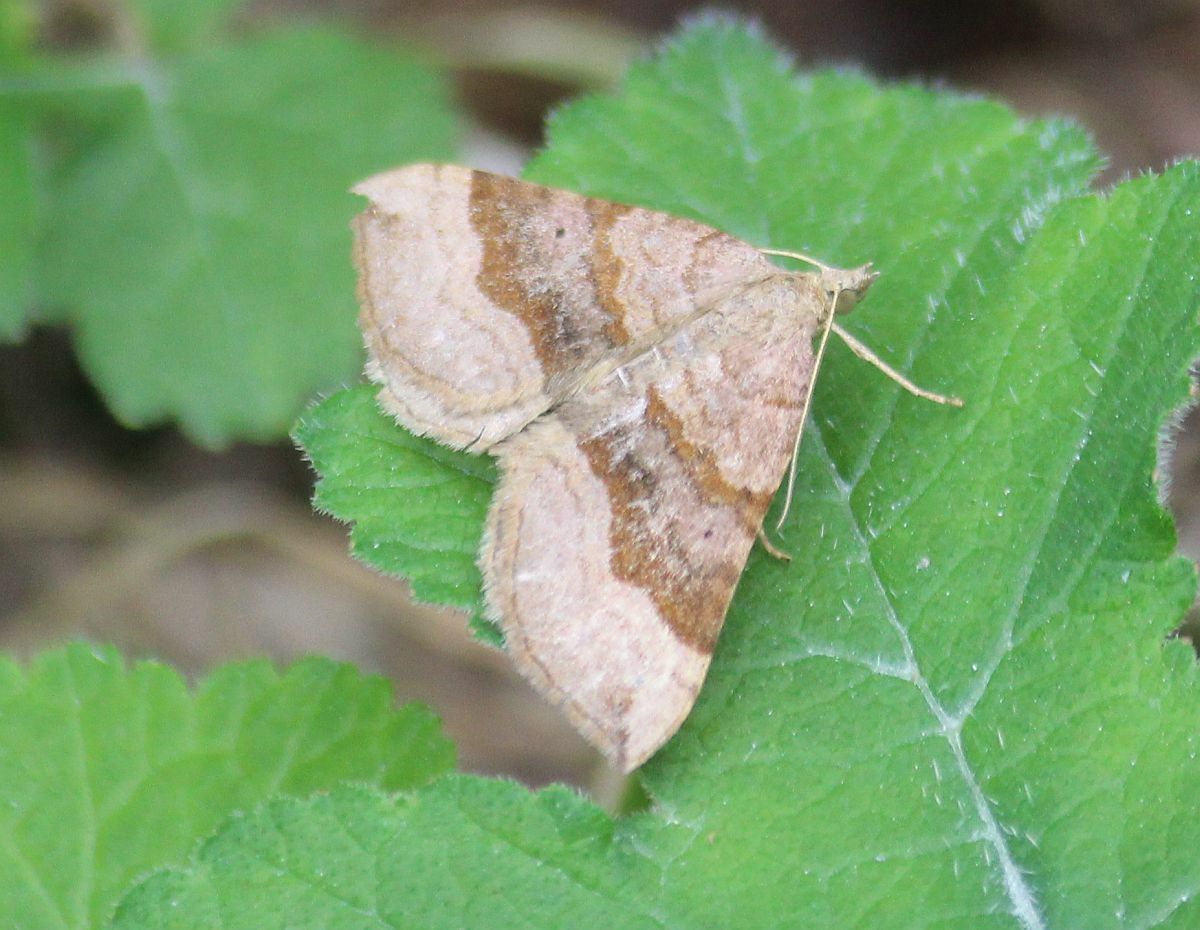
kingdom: Animalia
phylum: Arthropoda
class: Insecta
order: Lepidoptera
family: Geometridae
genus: Scotopteryx
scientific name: Scotopteryx chenopodiata
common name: Shaded broad-bar
